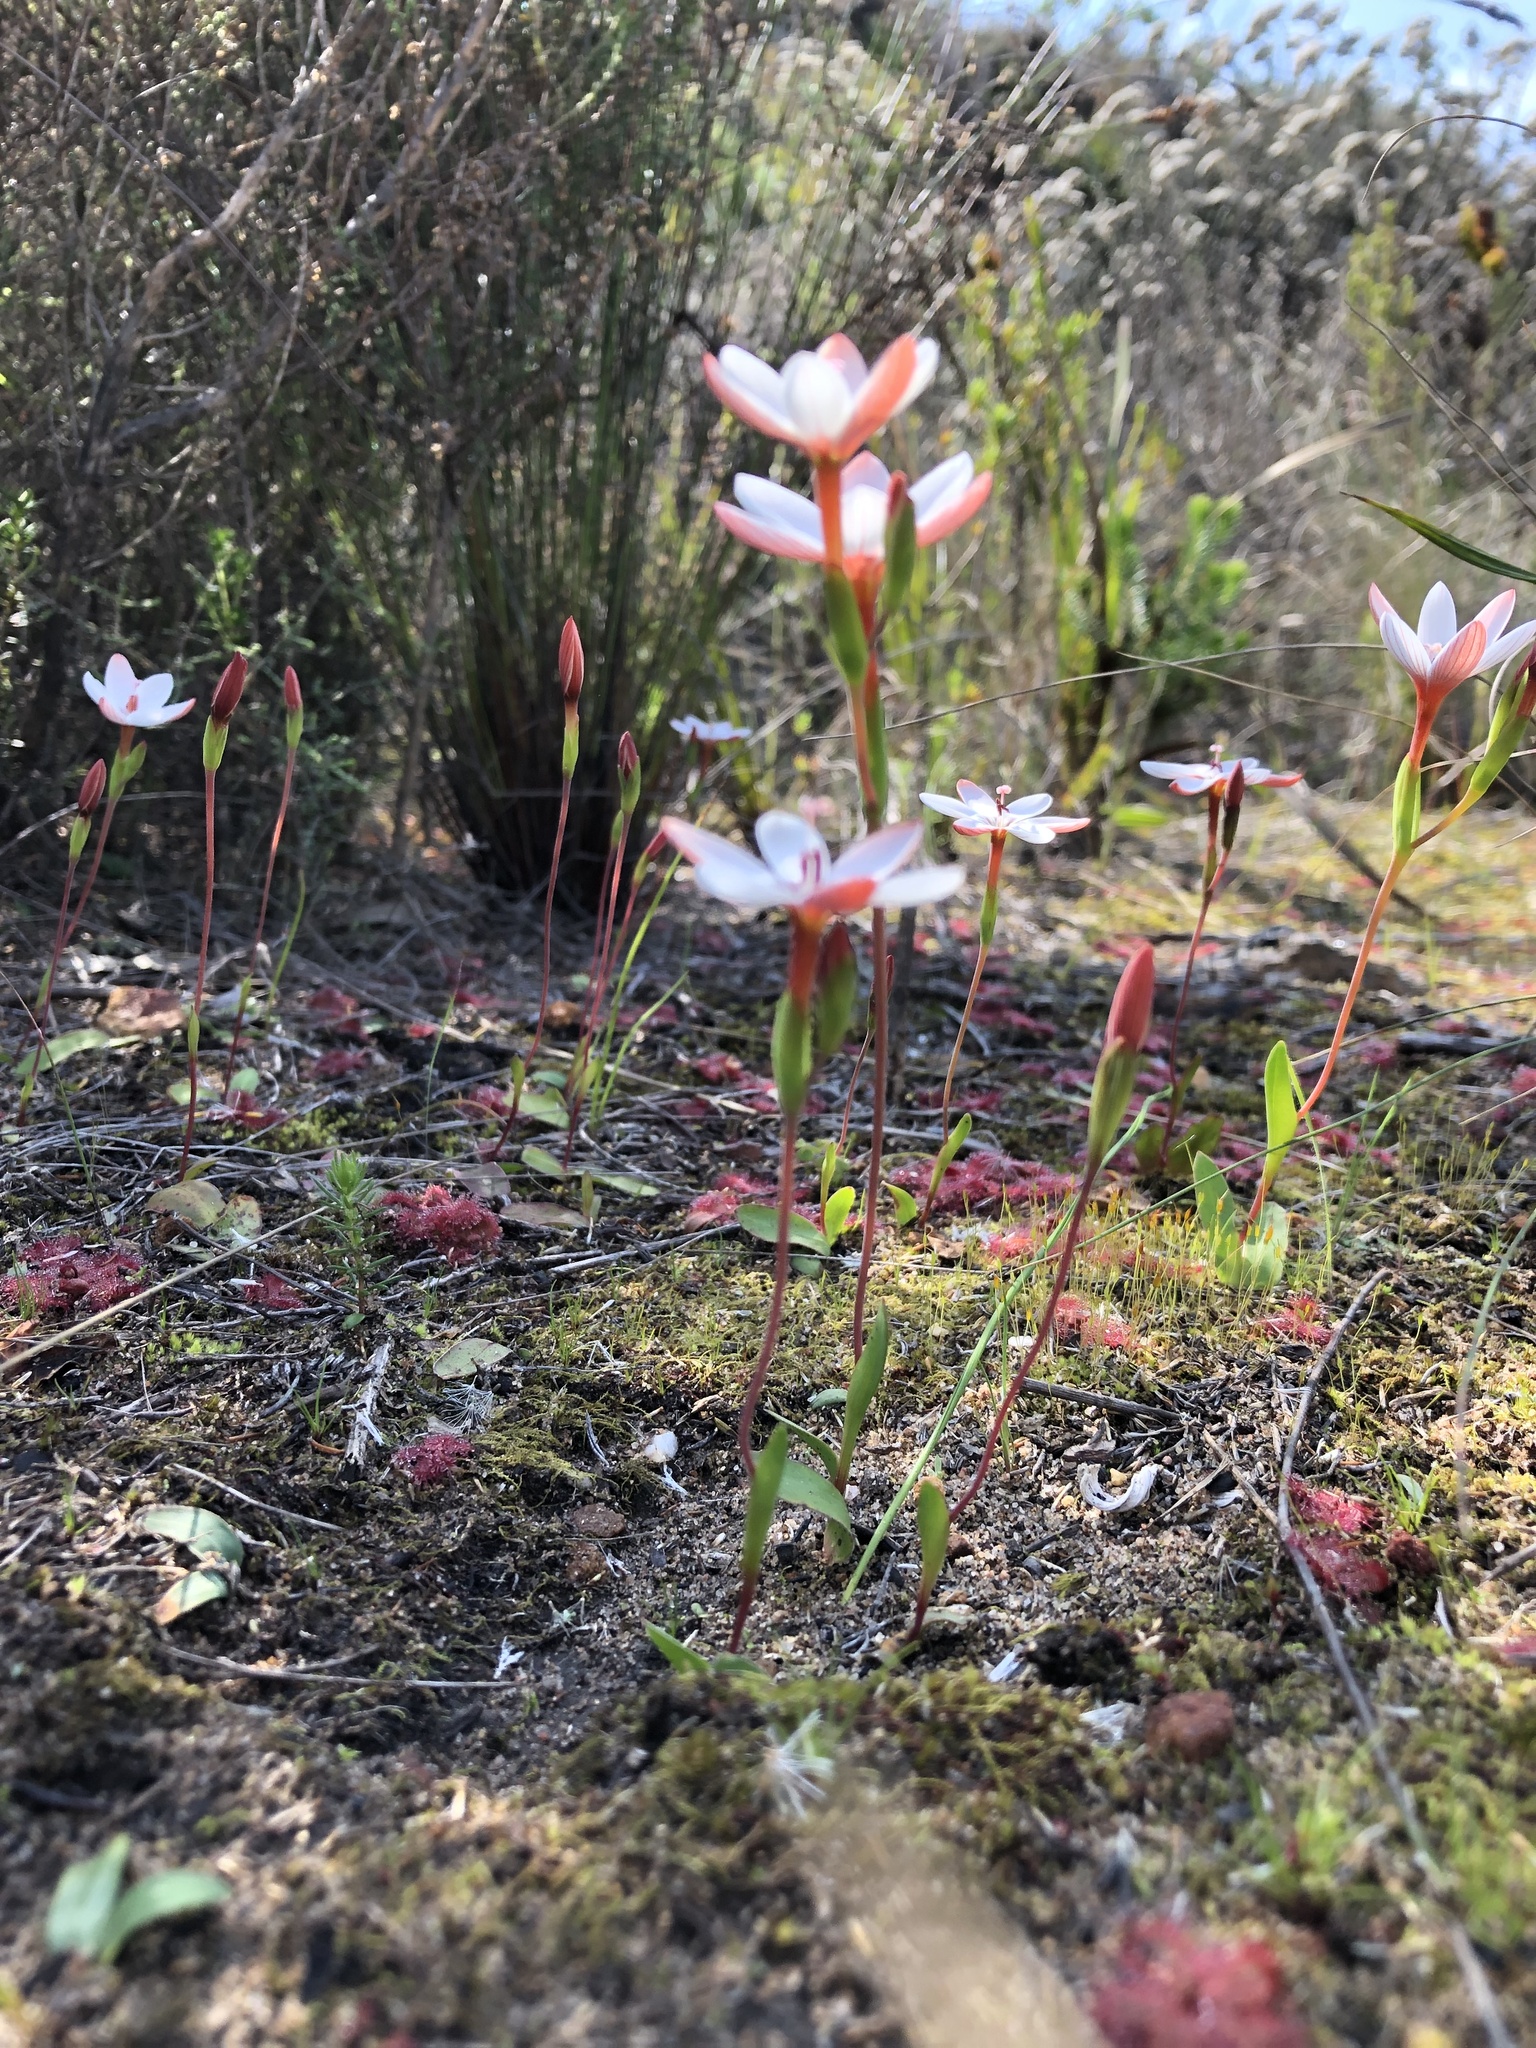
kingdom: Plantae
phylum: Tracheophyta
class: Liliopsida
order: Asparagales
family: Iridaceae
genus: Geissorhiza
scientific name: Geissorhiza ovata
